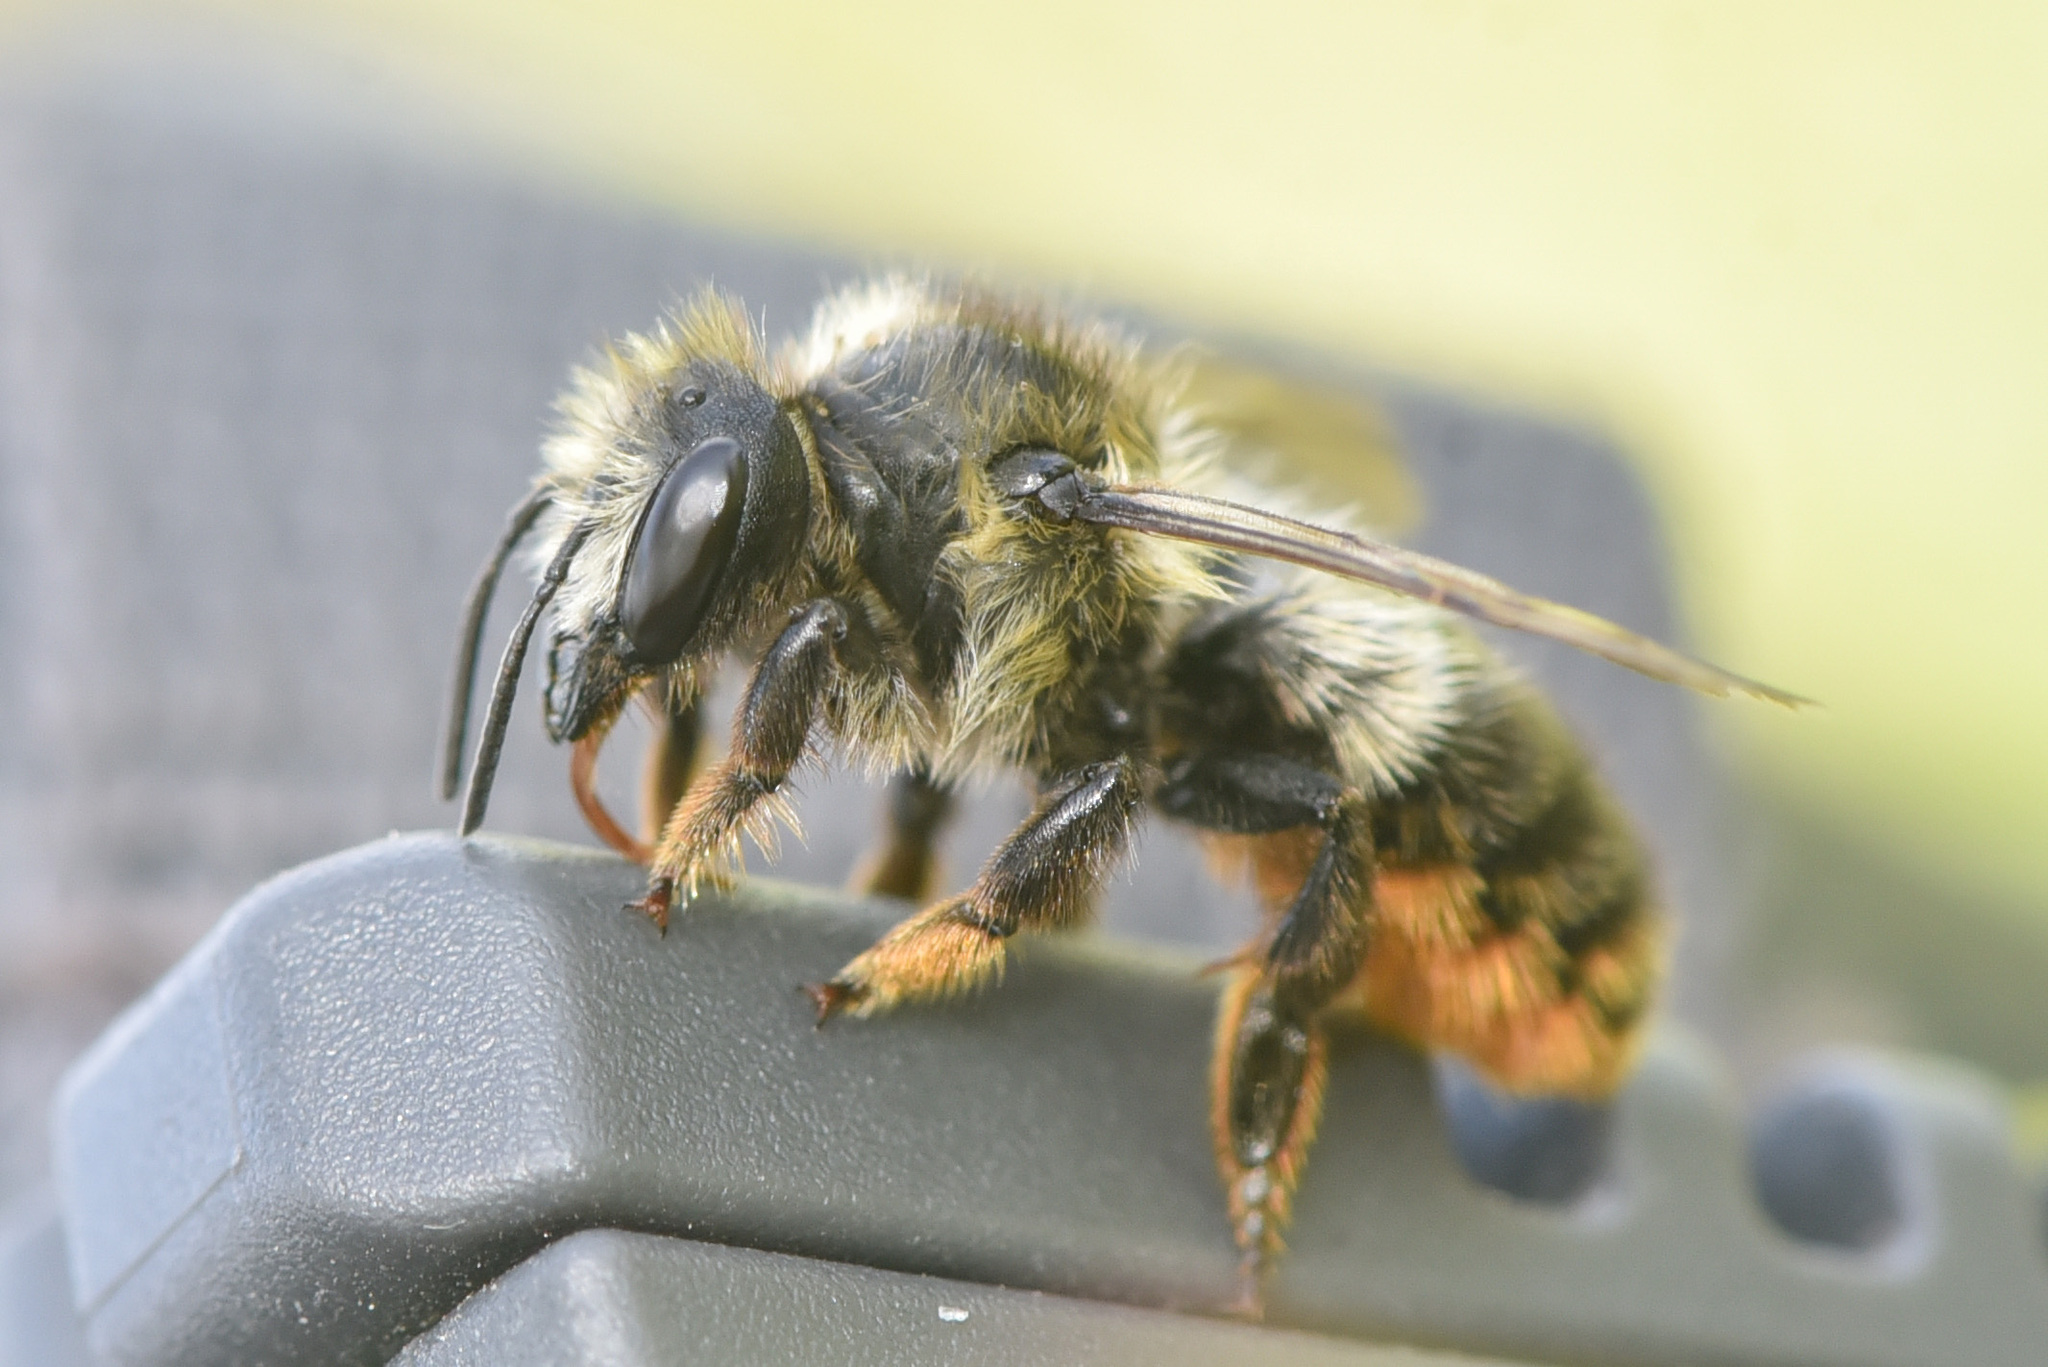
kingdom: Animalia
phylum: Arthropoda
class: Insecta
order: Hymenoptera
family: Megachilidae
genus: Megachile
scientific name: Megachile melanophaea
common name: Black-and-gray leafcutter bee
